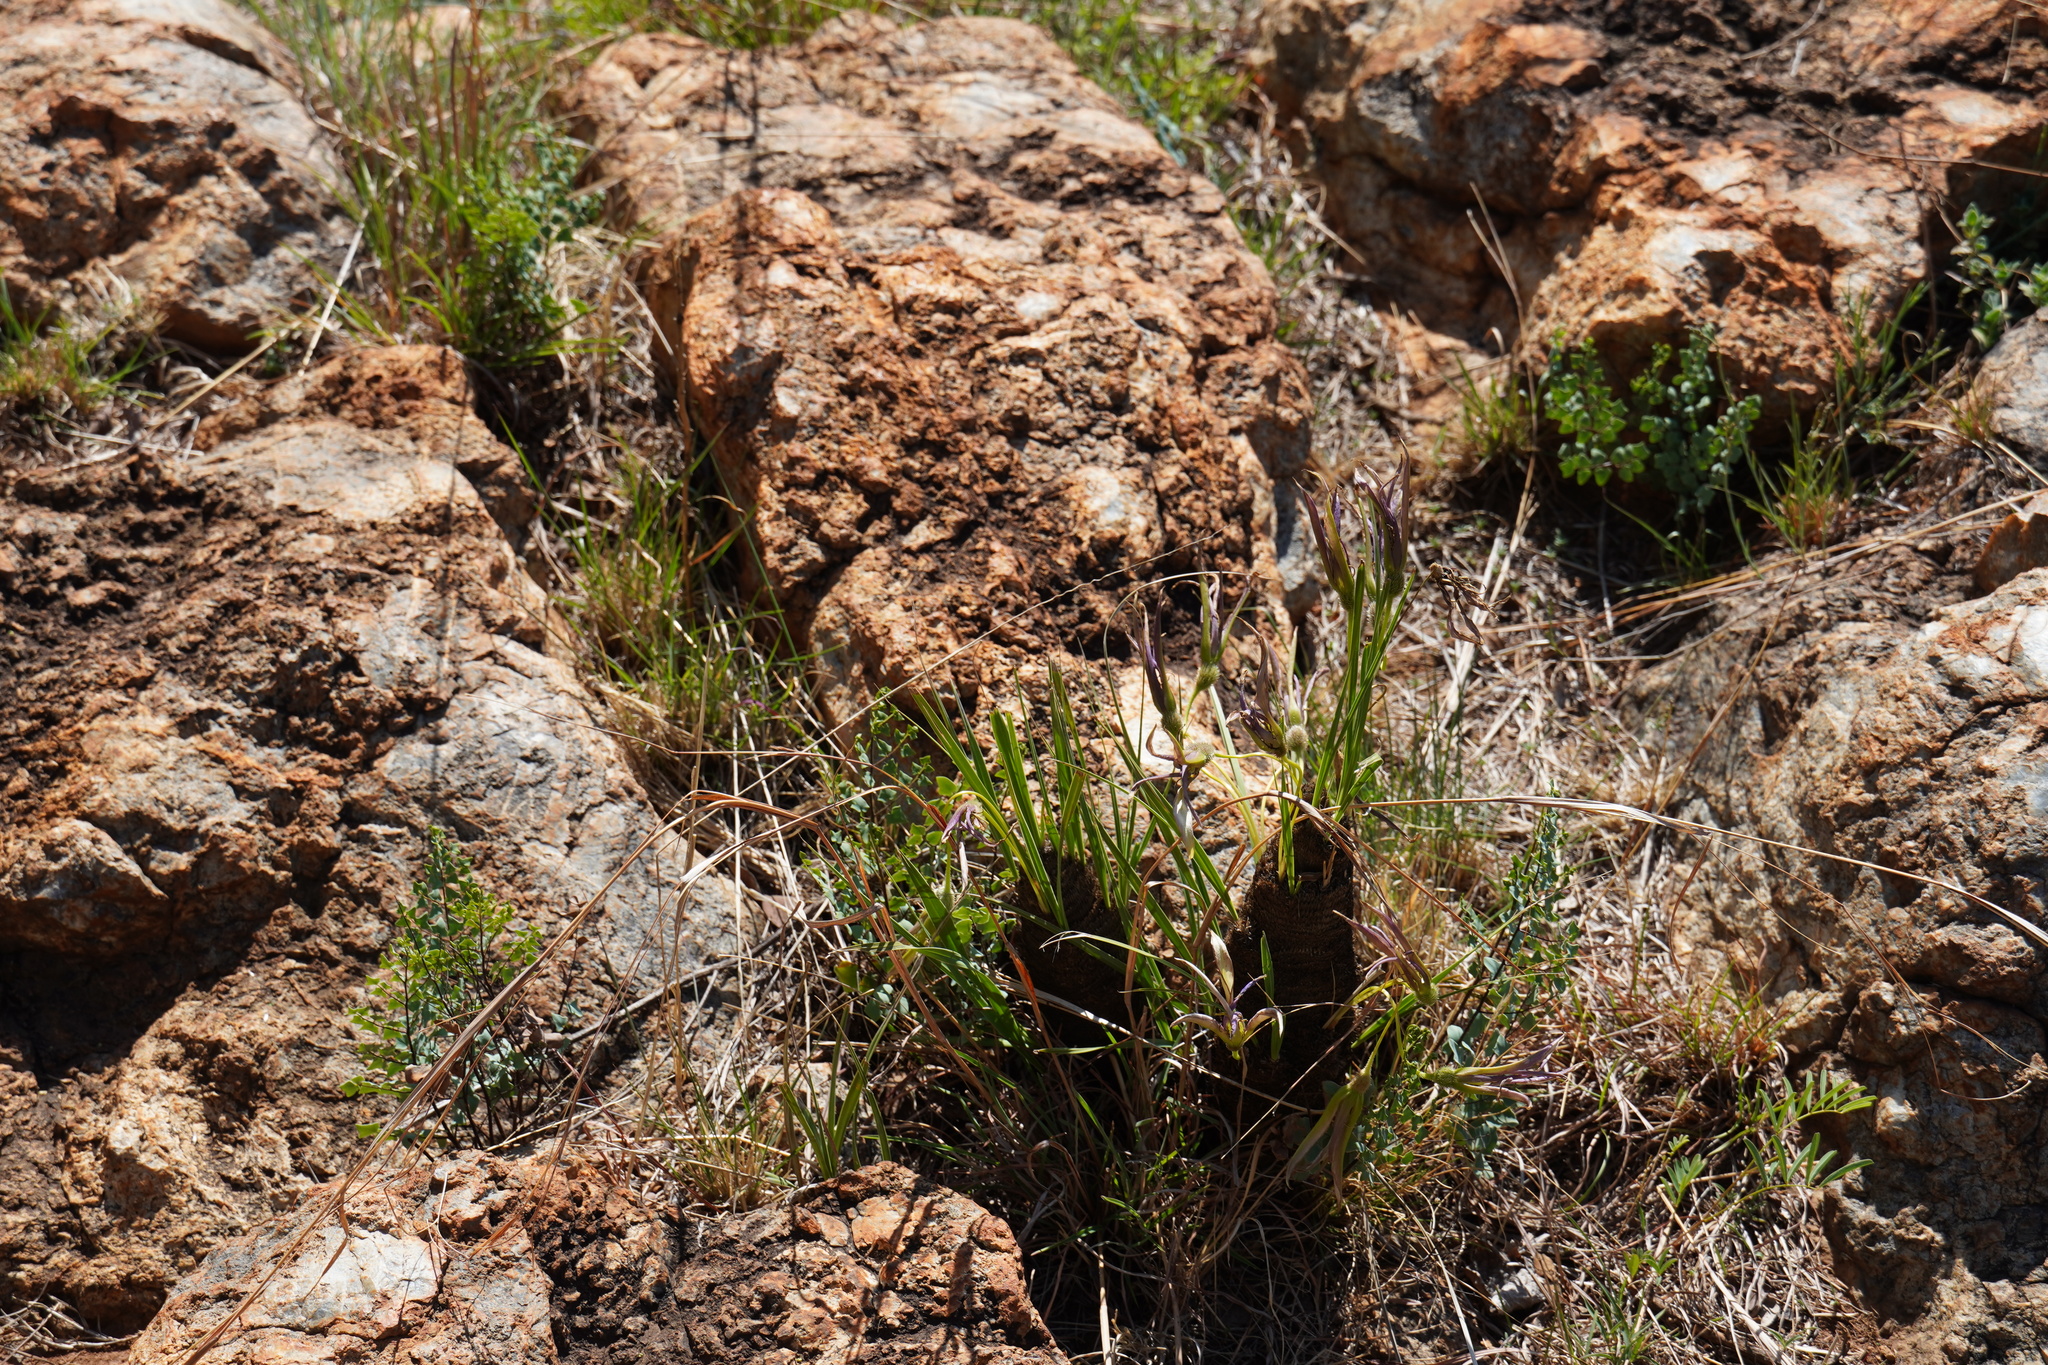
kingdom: Plantae
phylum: Tracheophyta
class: Liliopsida
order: Pandanales
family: Velloziaceae
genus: Xerophyta
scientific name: Xerophyta retinervis
